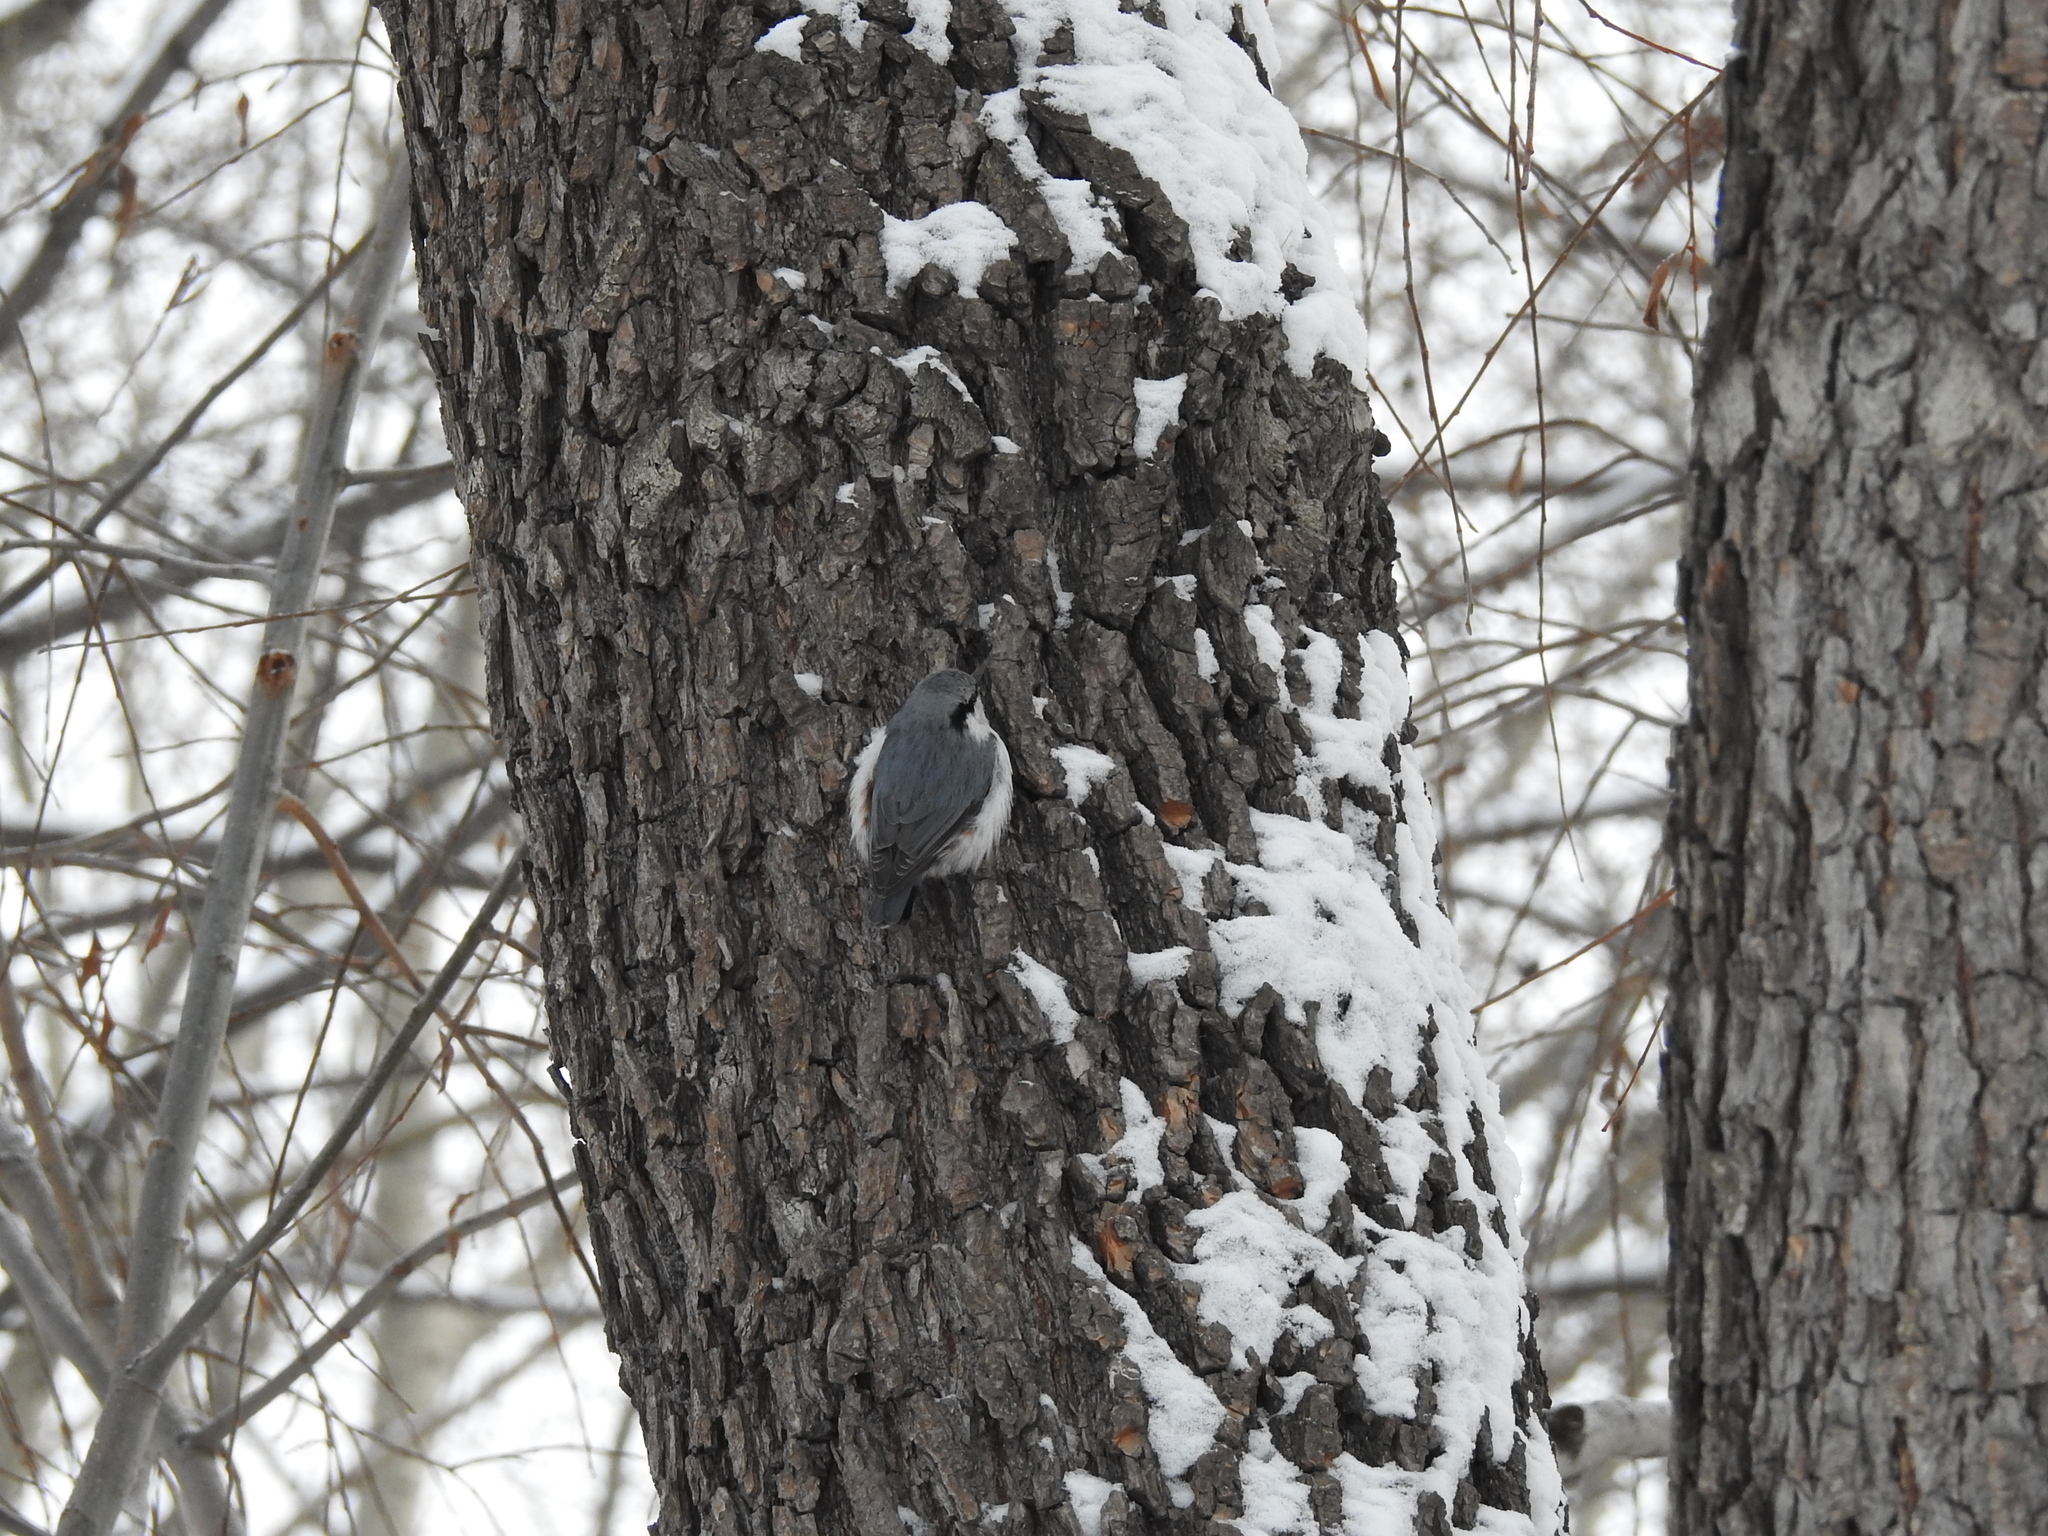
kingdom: Animalia
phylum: Chordata
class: Aves
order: Passeriformes
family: Sittidae
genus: Sitta
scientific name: Sitta europaea
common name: Eurasian nuthatch
